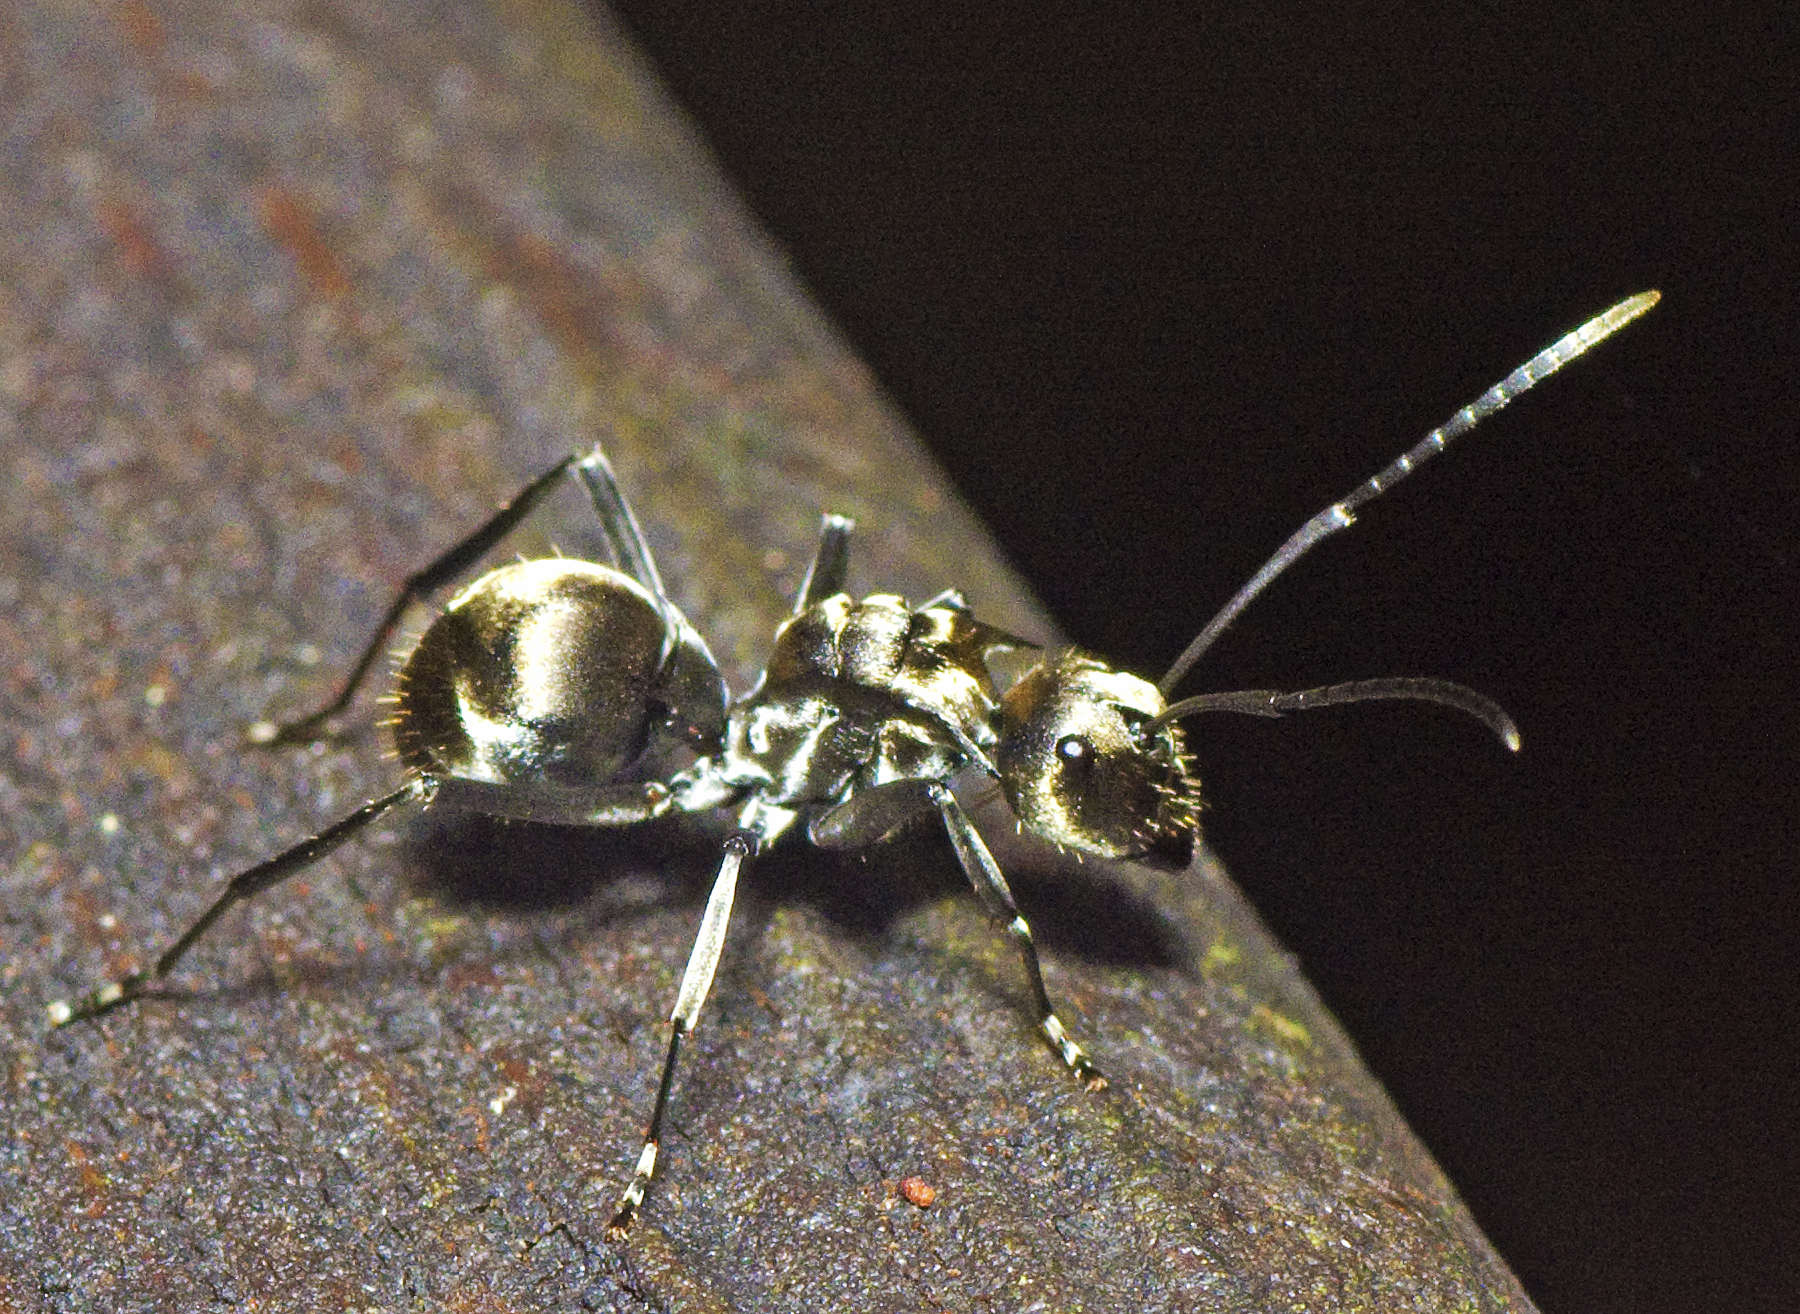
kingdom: Animalia
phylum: Arthropoda
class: Insecta
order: Hymenoptera
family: Formicidae
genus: Polyrhachis
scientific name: Polyrhachis foreli
